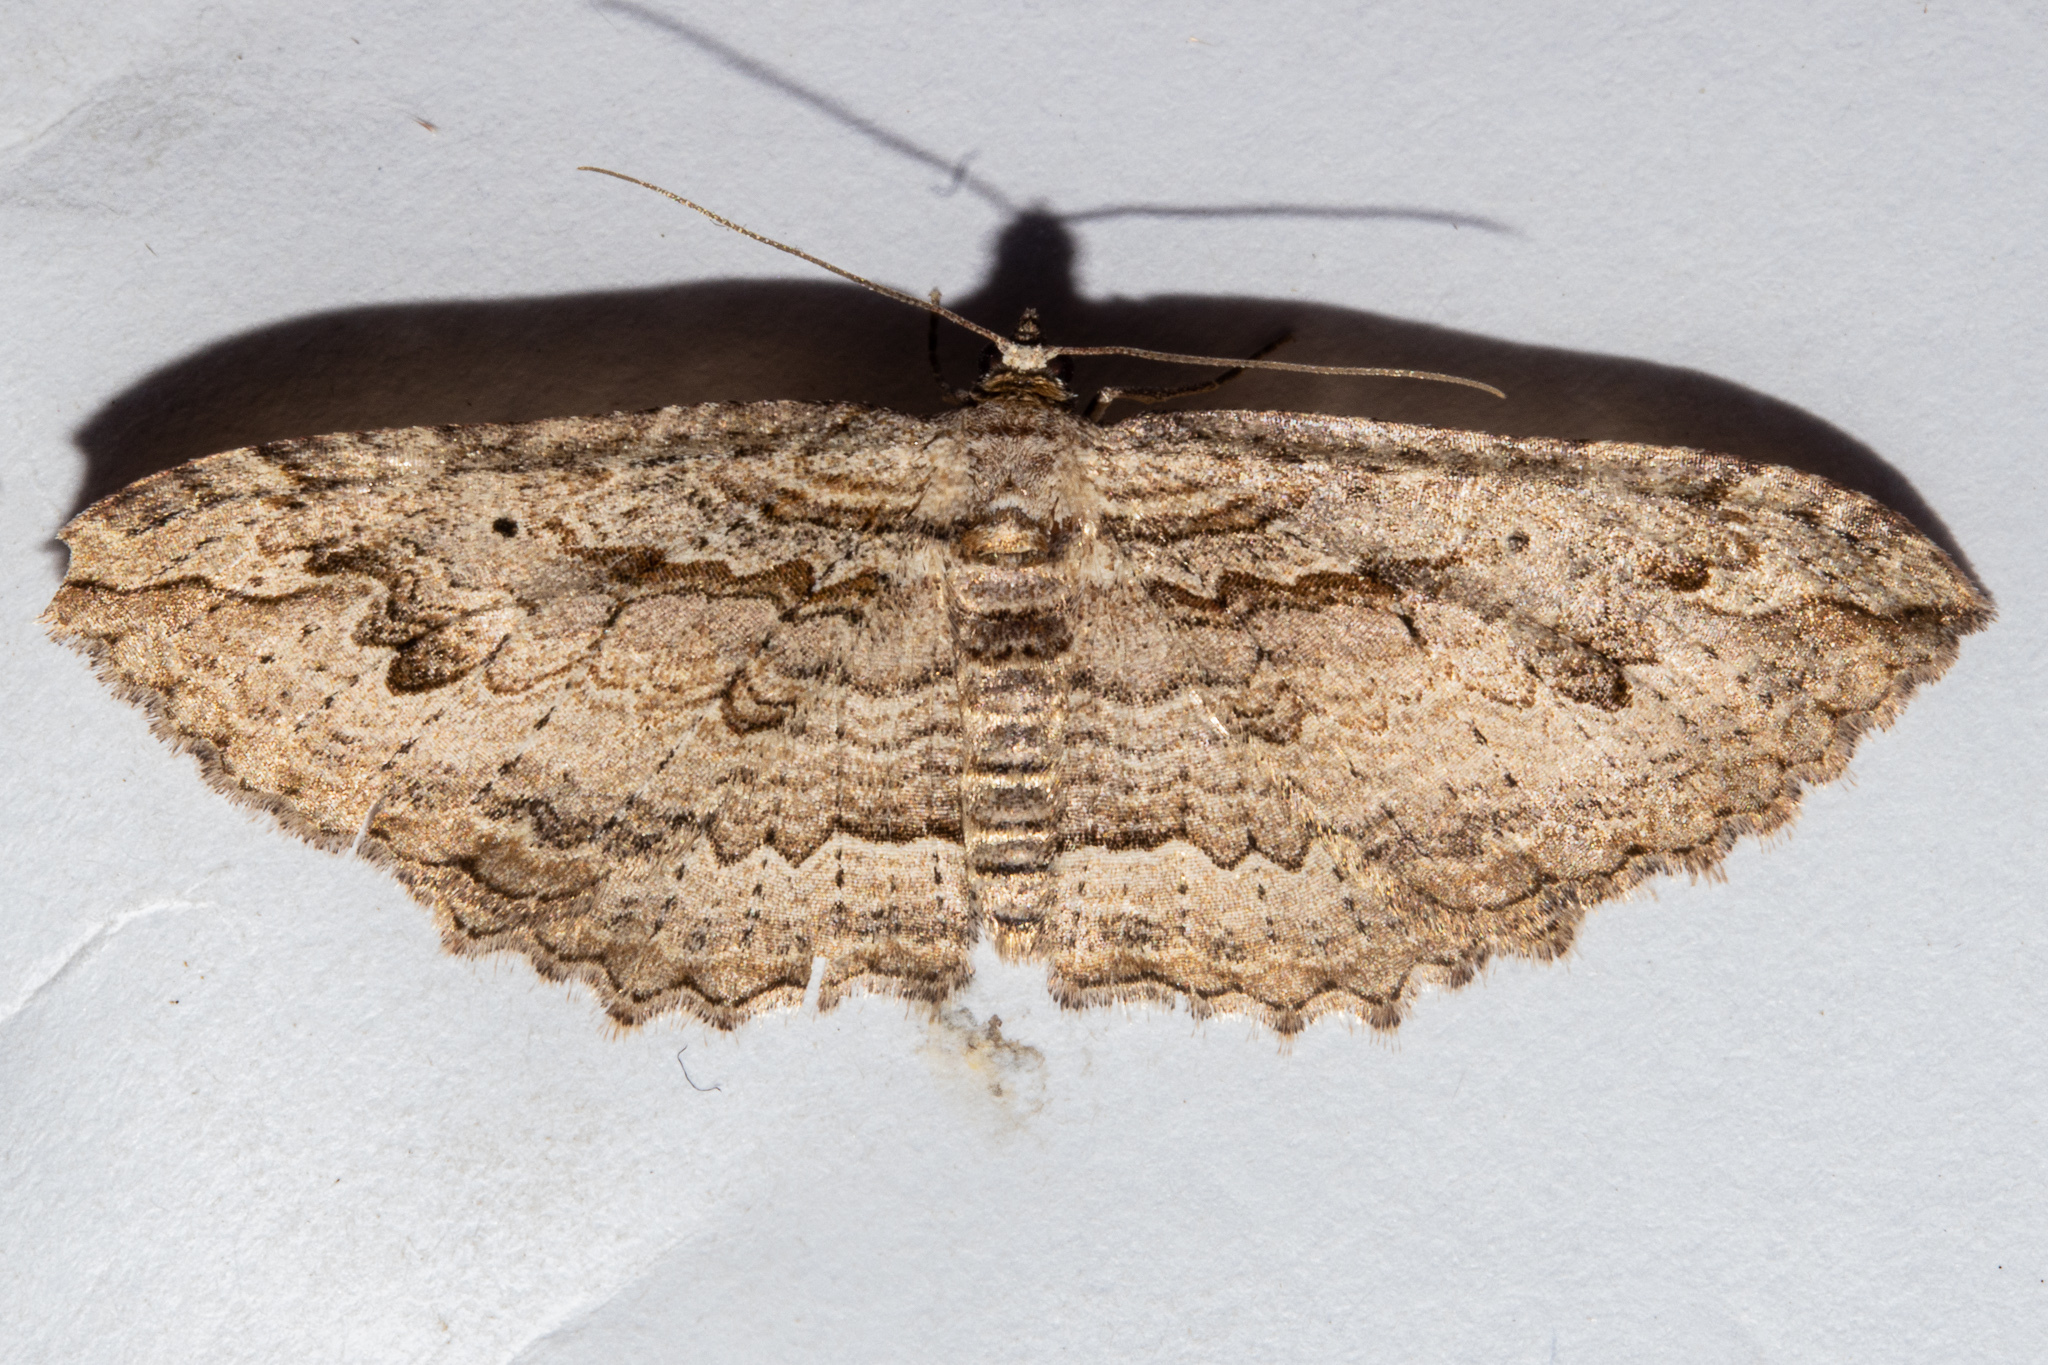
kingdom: Animalia
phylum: Arthropoda
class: Insecta
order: Lepidoptera
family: Geometridae
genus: Austrocidaria
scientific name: Austrocidaria anguligera
